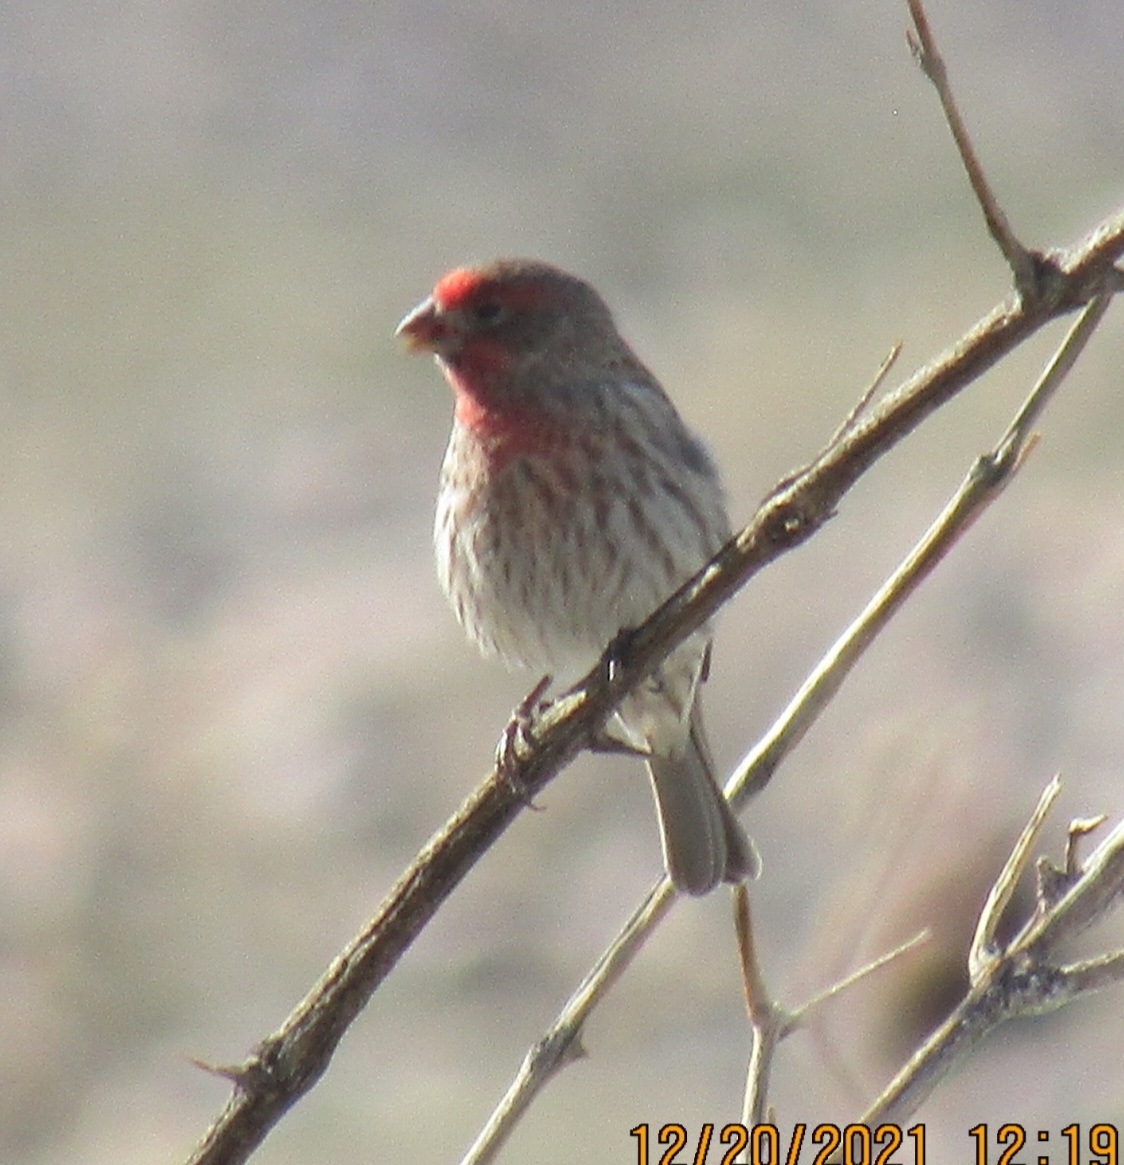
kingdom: Animalia
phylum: Chordata
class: Aves
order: Passeriformes
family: Fringillidae
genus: Haemorhous
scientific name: Haemorhous mexicanus
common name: House finch
